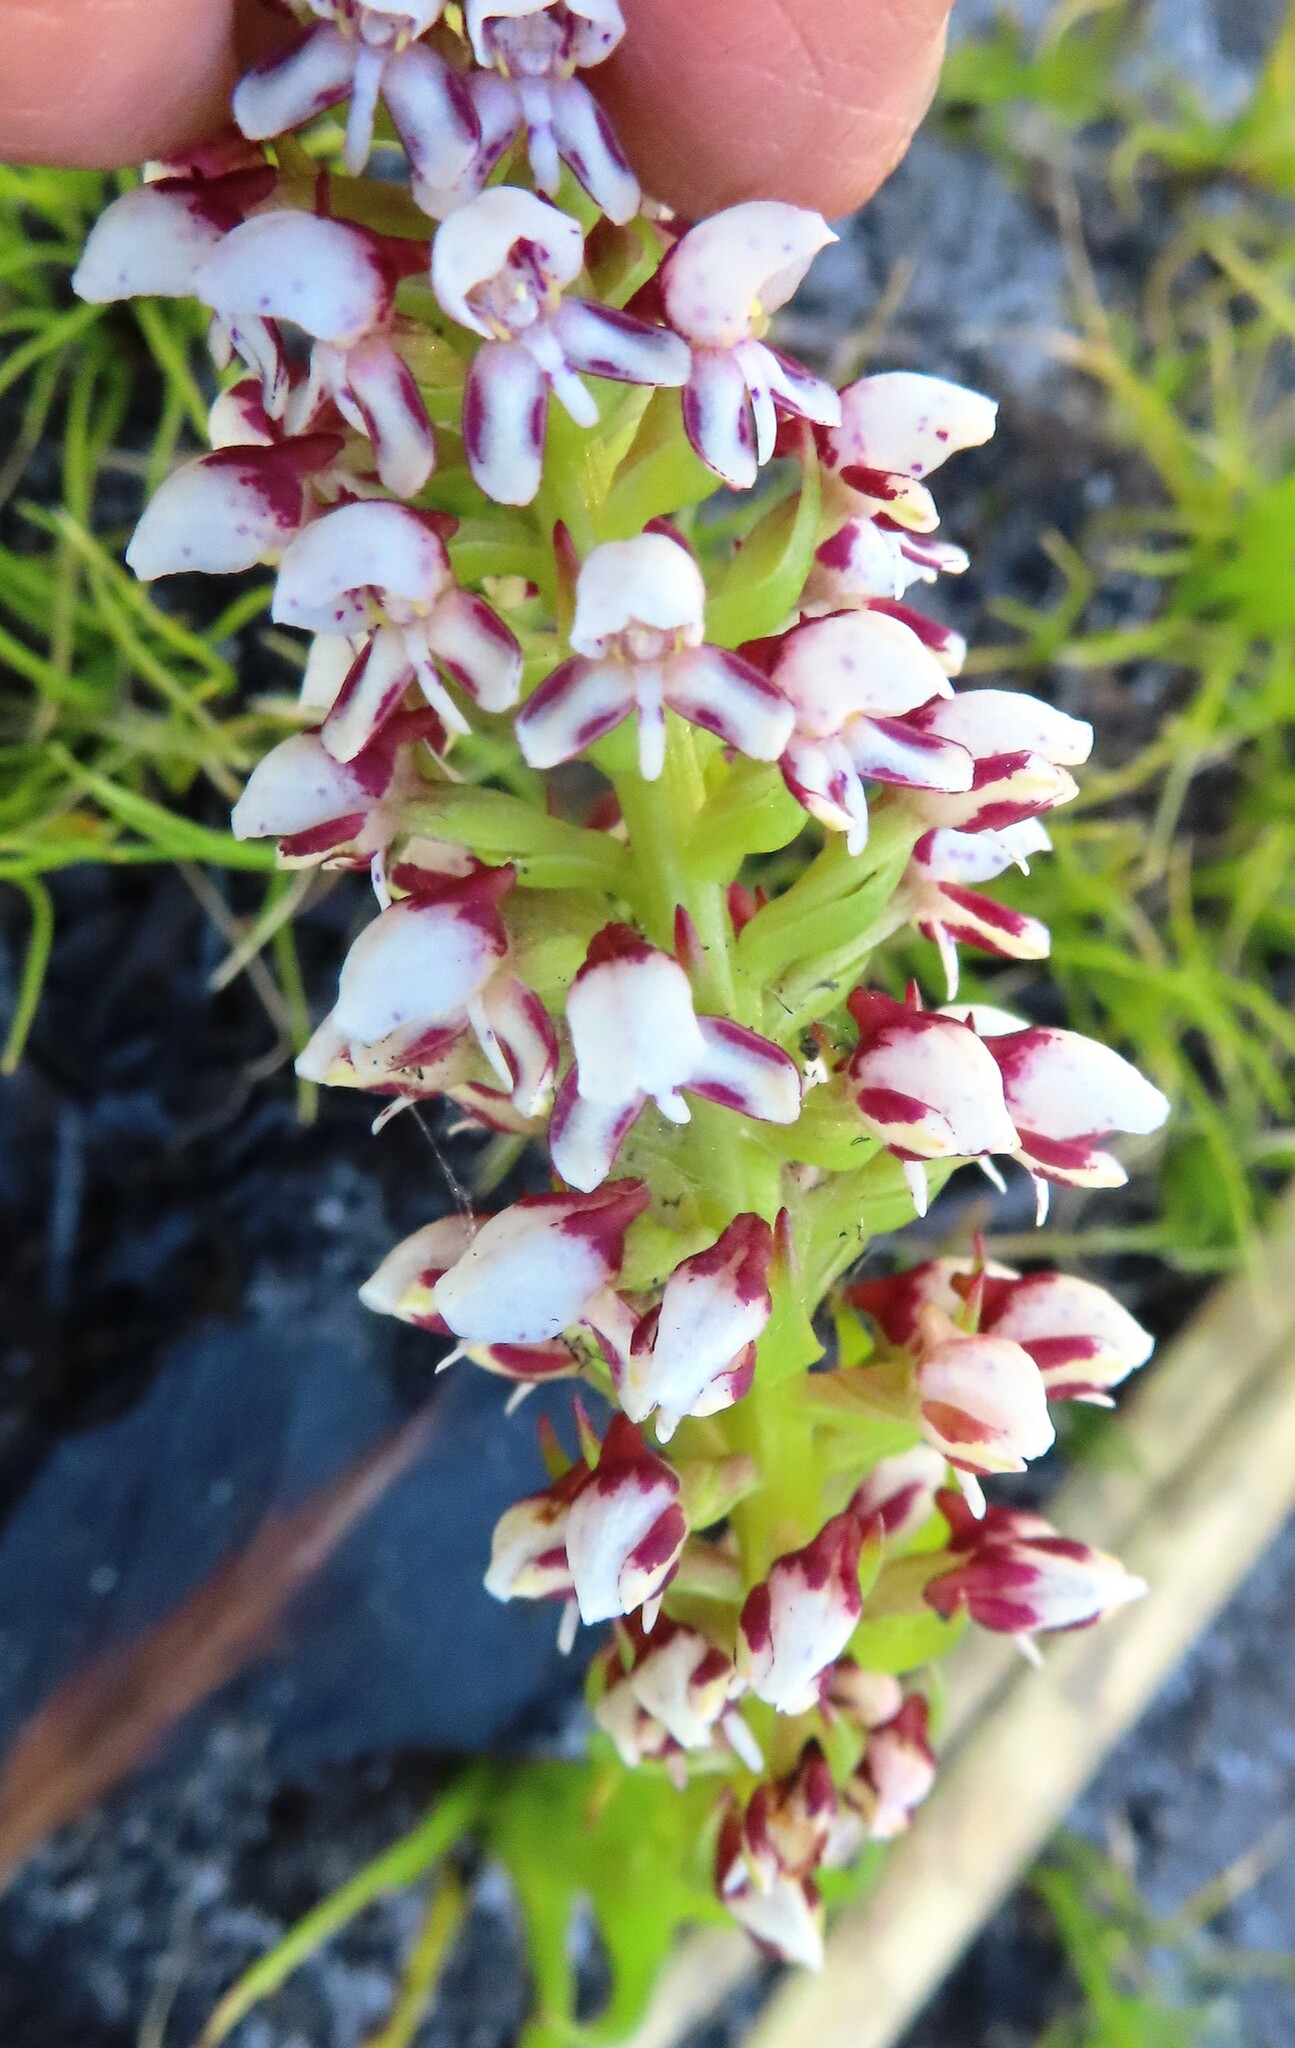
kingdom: Plantae
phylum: Tracheophyta
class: Liliopsida
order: Asparagales
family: Orchidaceae
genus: Disa
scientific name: Disa obtusa
